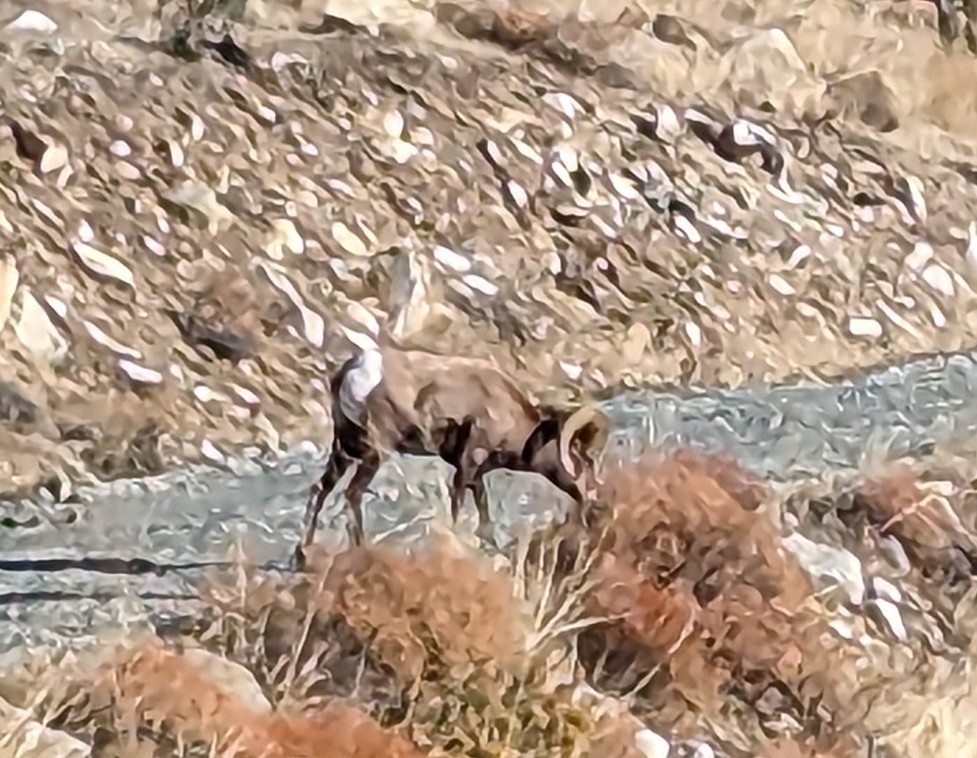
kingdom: Animalia
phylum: Chordata
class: Mammalia
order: Artiodactyla
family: Bovidae
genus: Ovis
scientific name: Ovis canadensis
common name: Bighorn sheep
